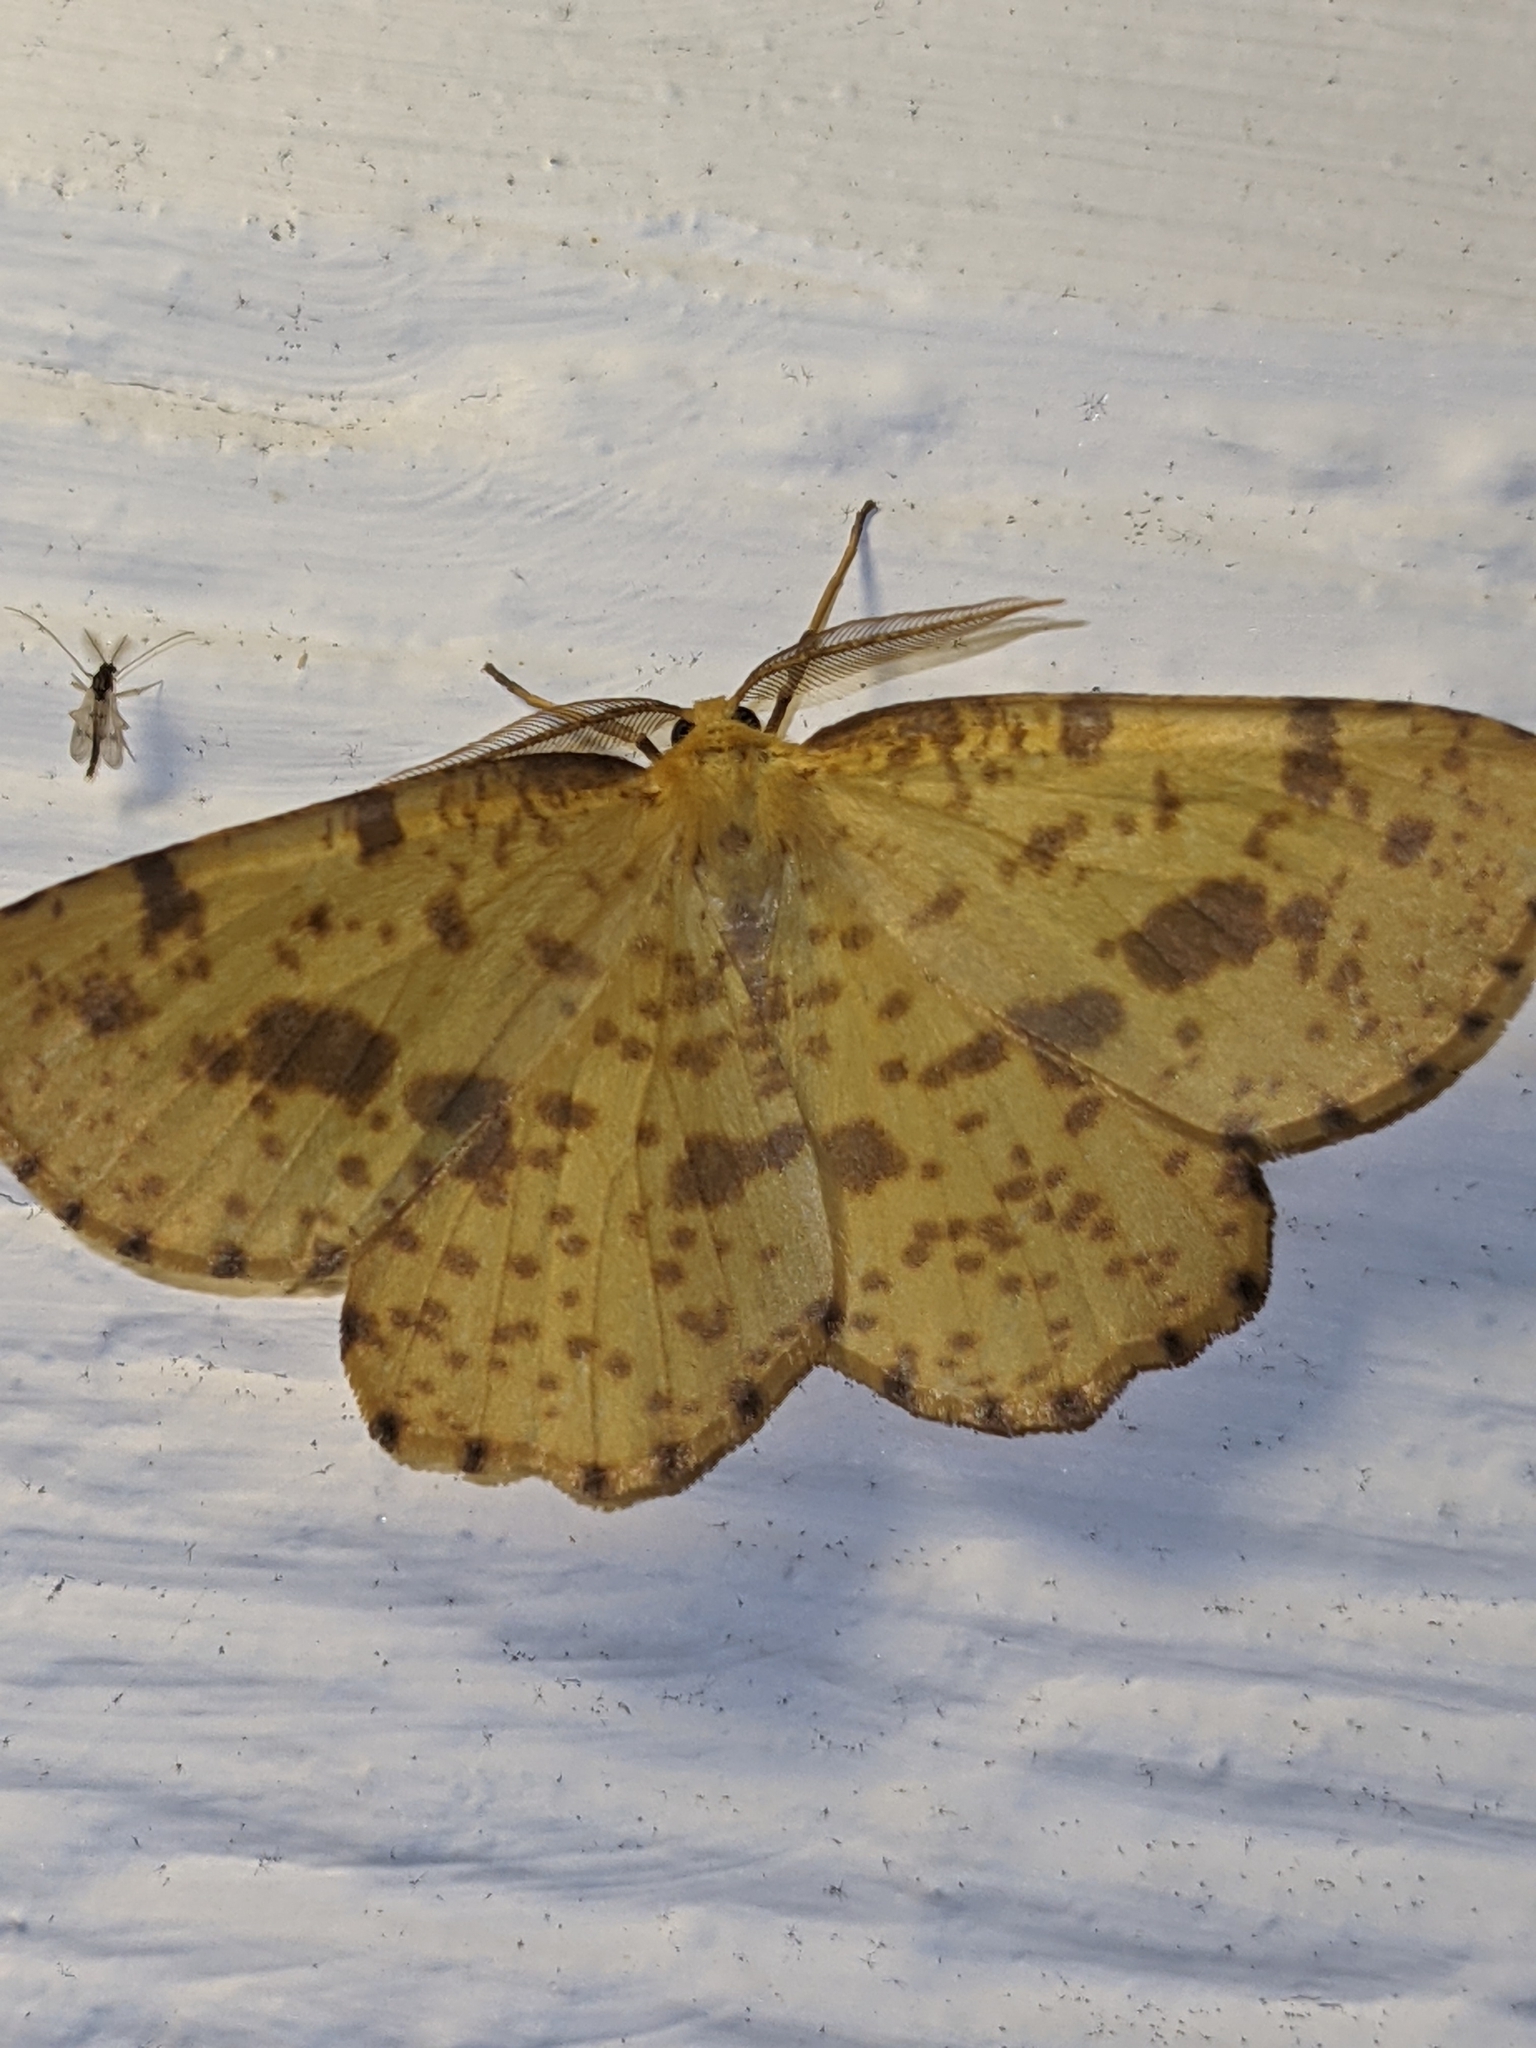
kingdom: Animalia
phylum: Arthropoda
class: Insecta
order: Lepidoptera
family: Geometridae
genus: Xanthotype
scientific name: Xanthotype
